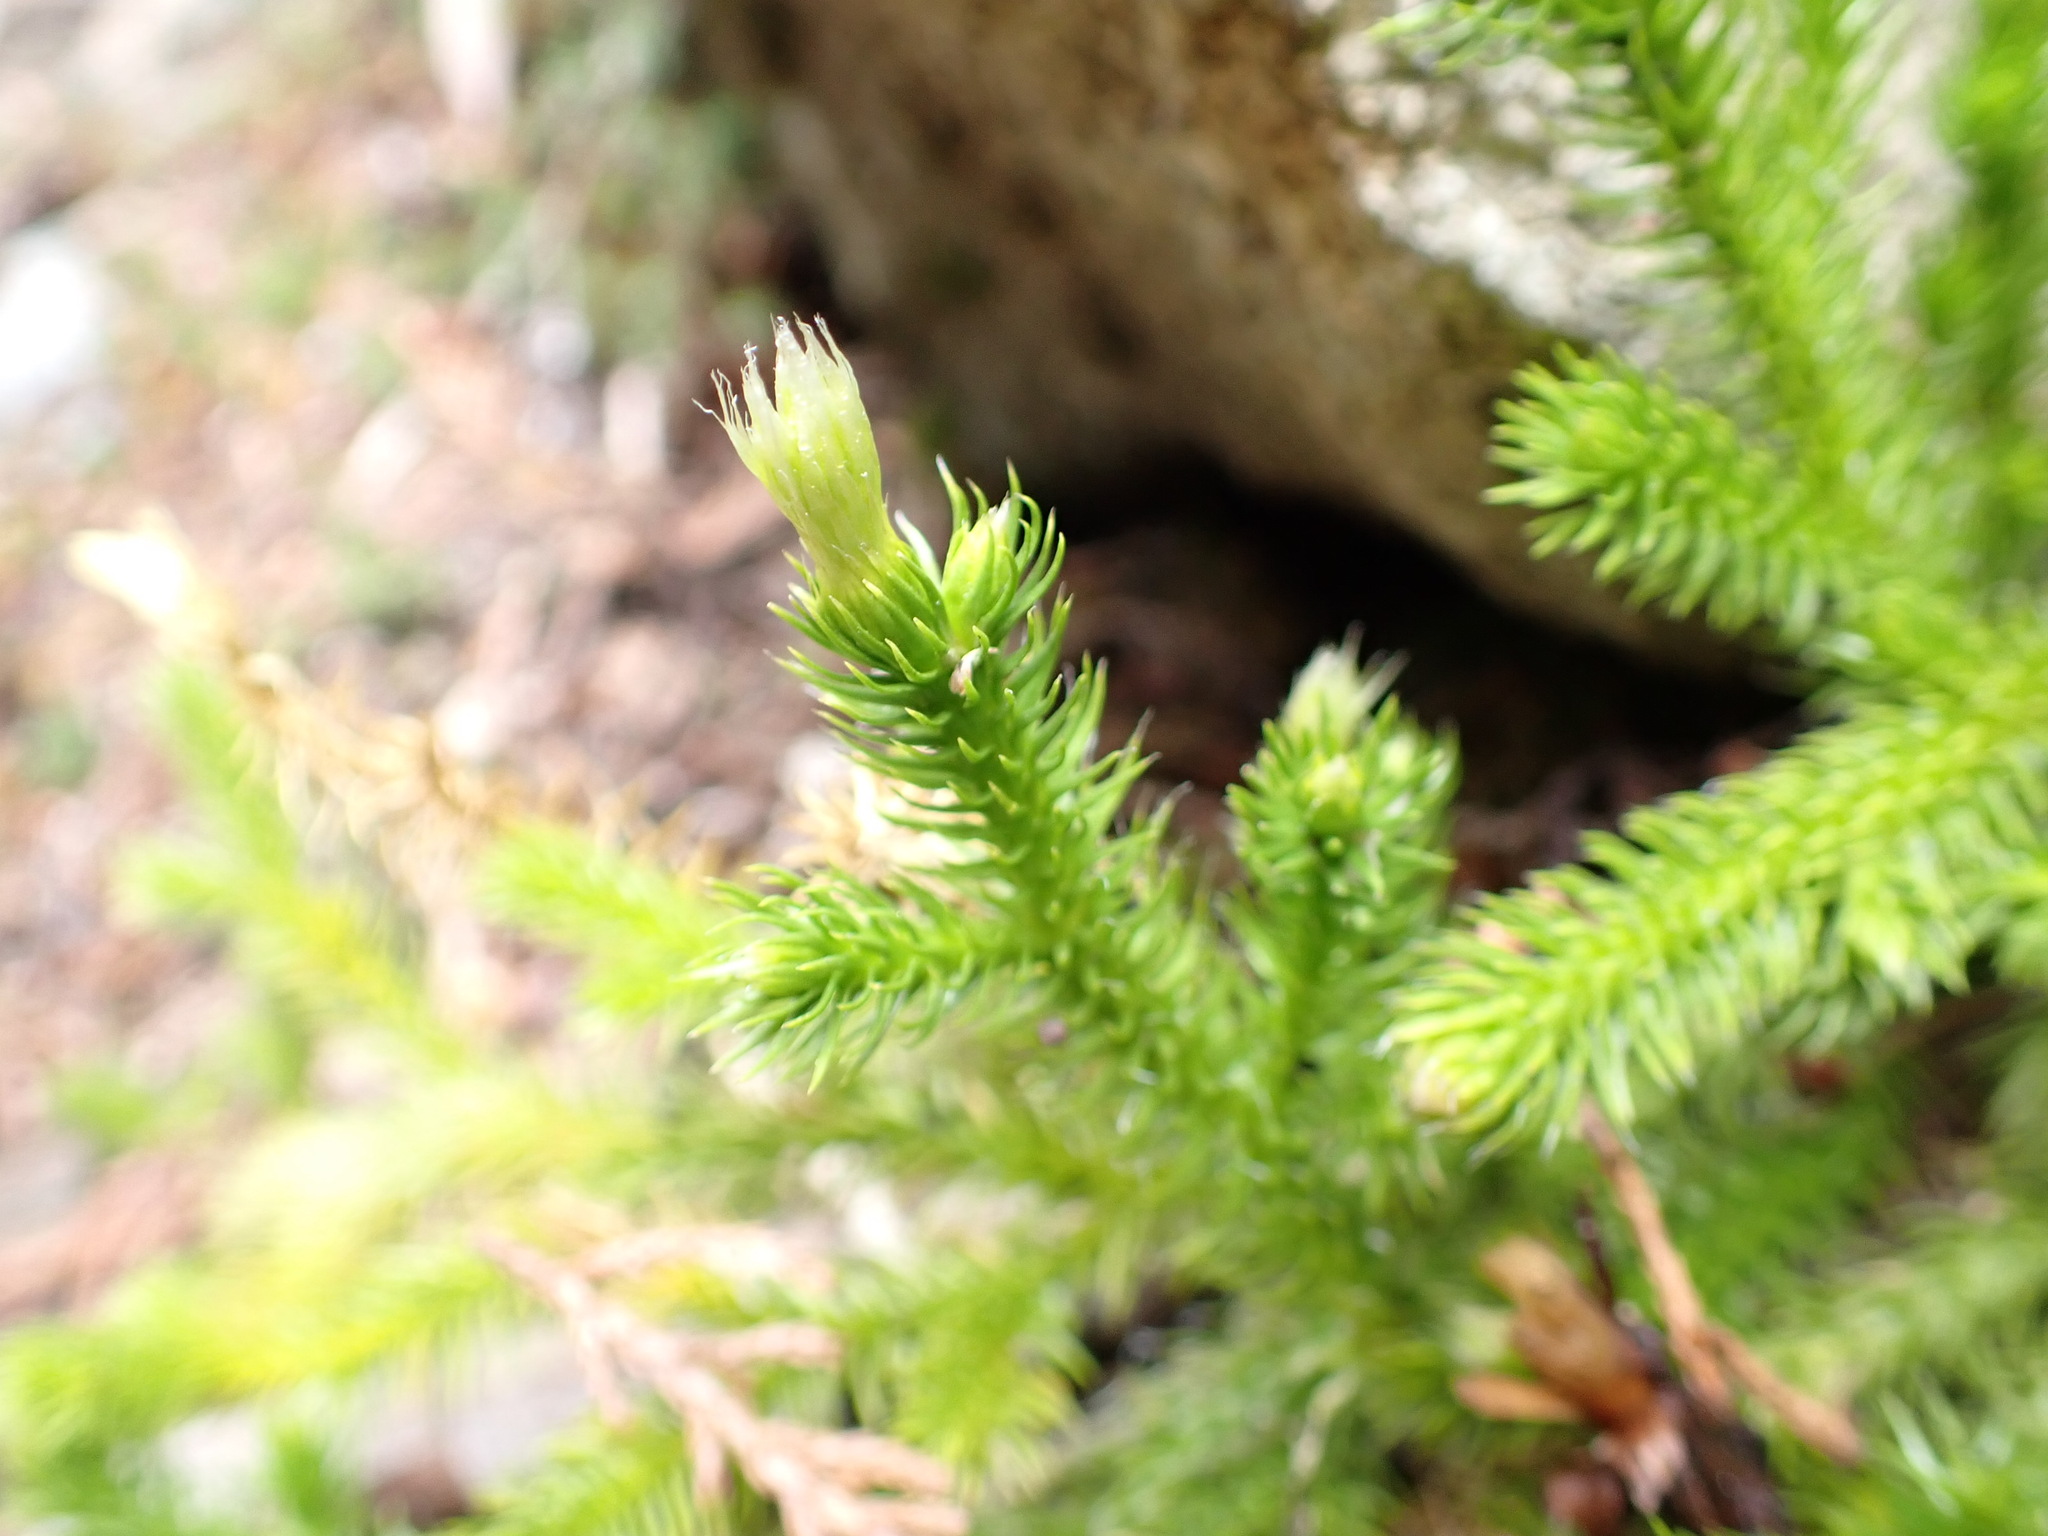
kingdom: Plantae
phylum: Tracheophyta
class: Lycopodiopsida
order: Lycopodiales
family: Lycopodiaceae
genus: Lycopodium
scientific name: Lycopodium clavatum
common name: Stag's-horn clubmoss
